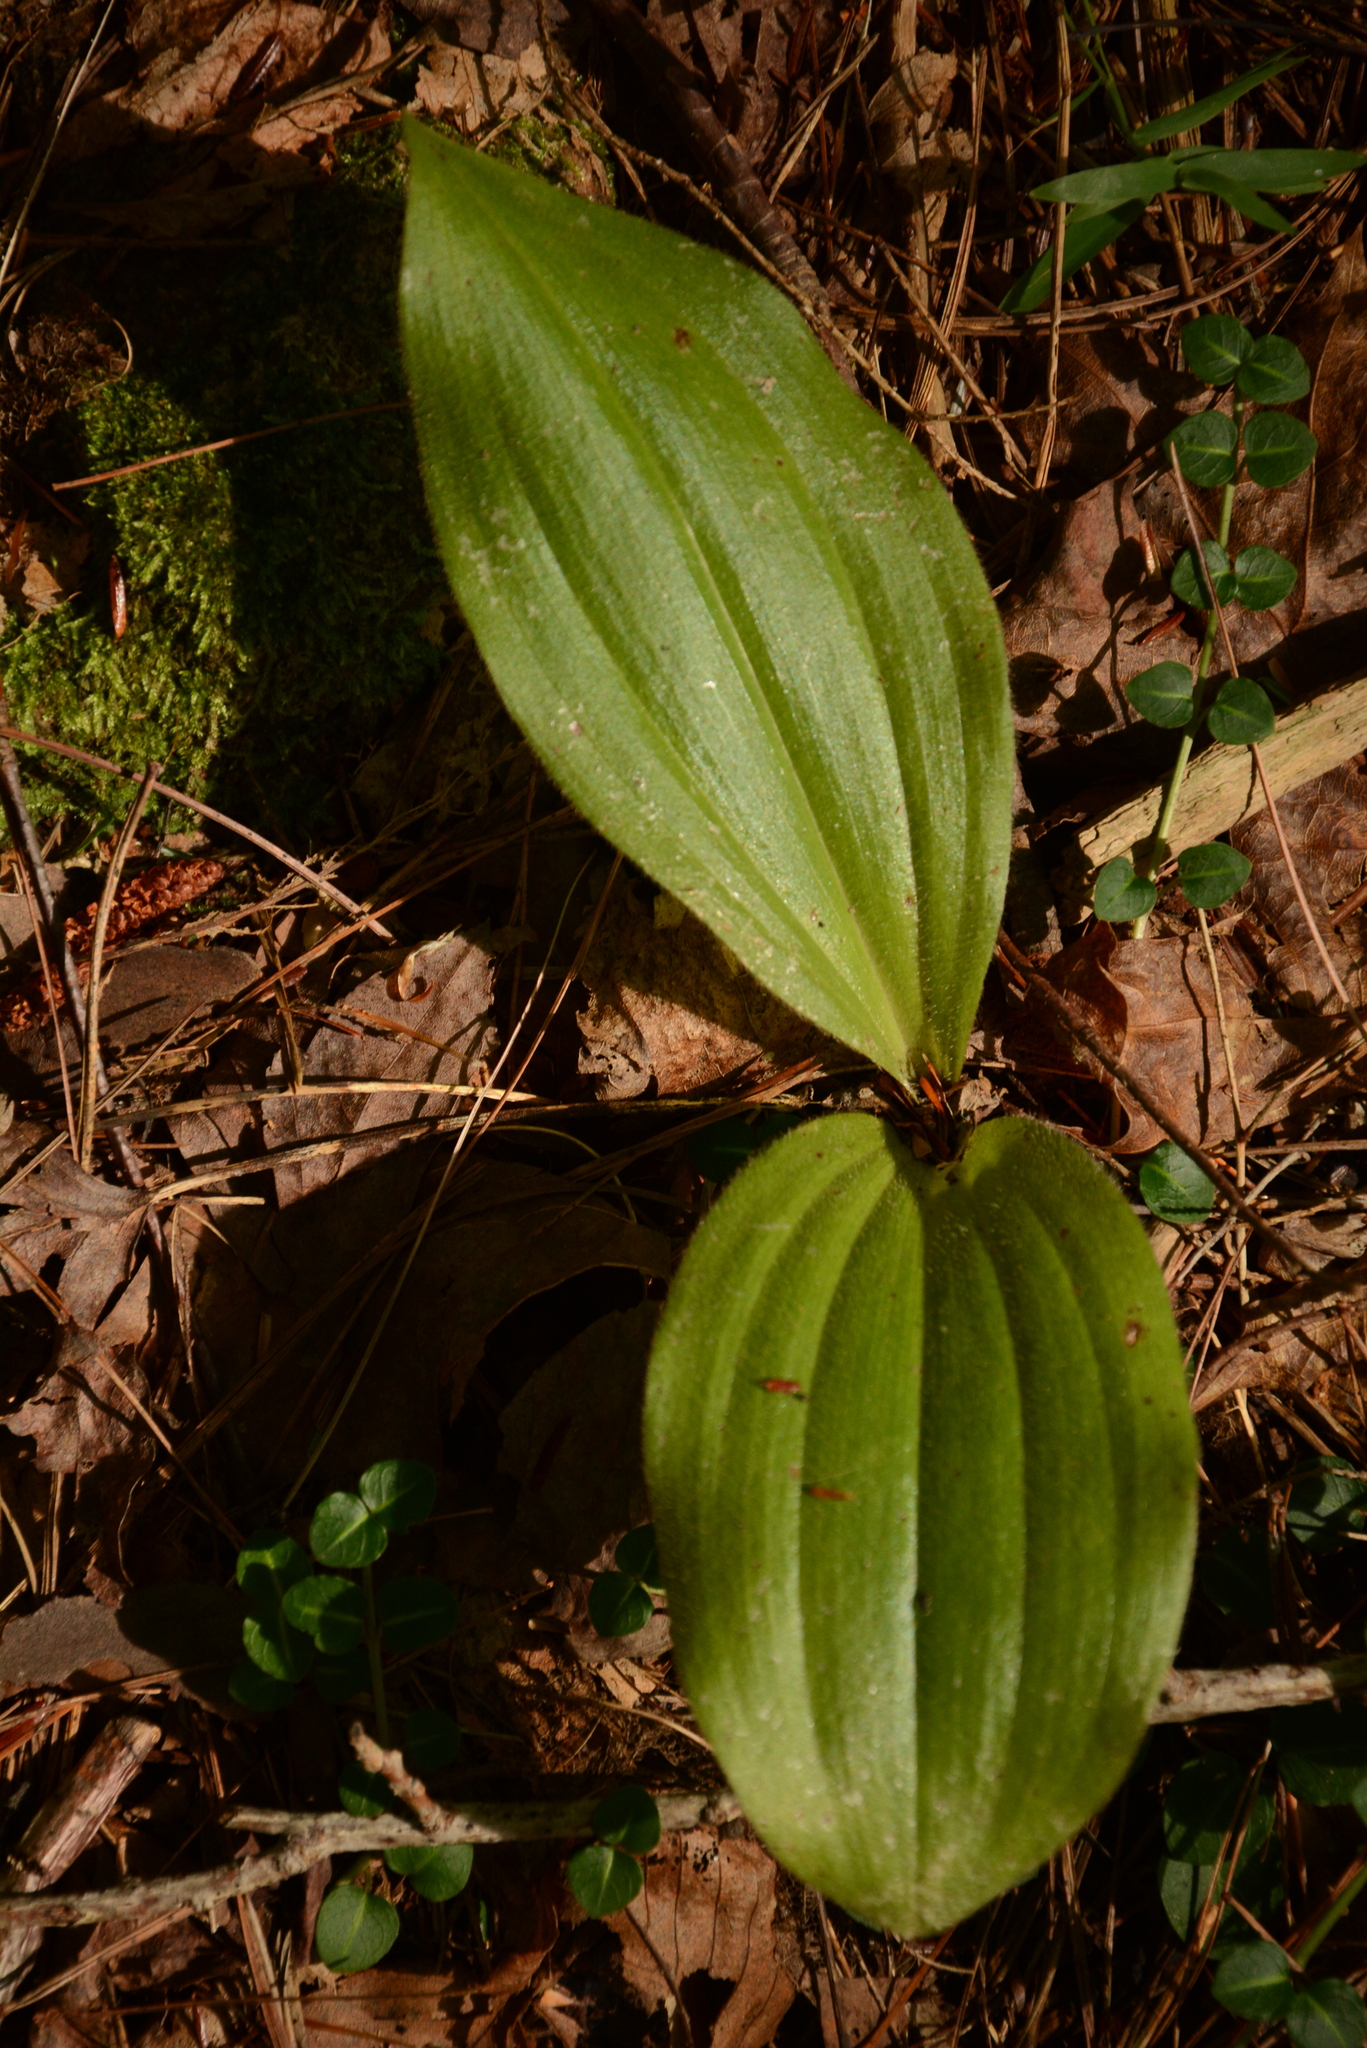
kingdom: Plantae
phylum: Tracheophyta
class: Liliopsida
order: Asparagales
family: Orchidaceae
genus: Cypripedium
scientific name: Cypripedium acaule
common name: Pink lady's-slipper
